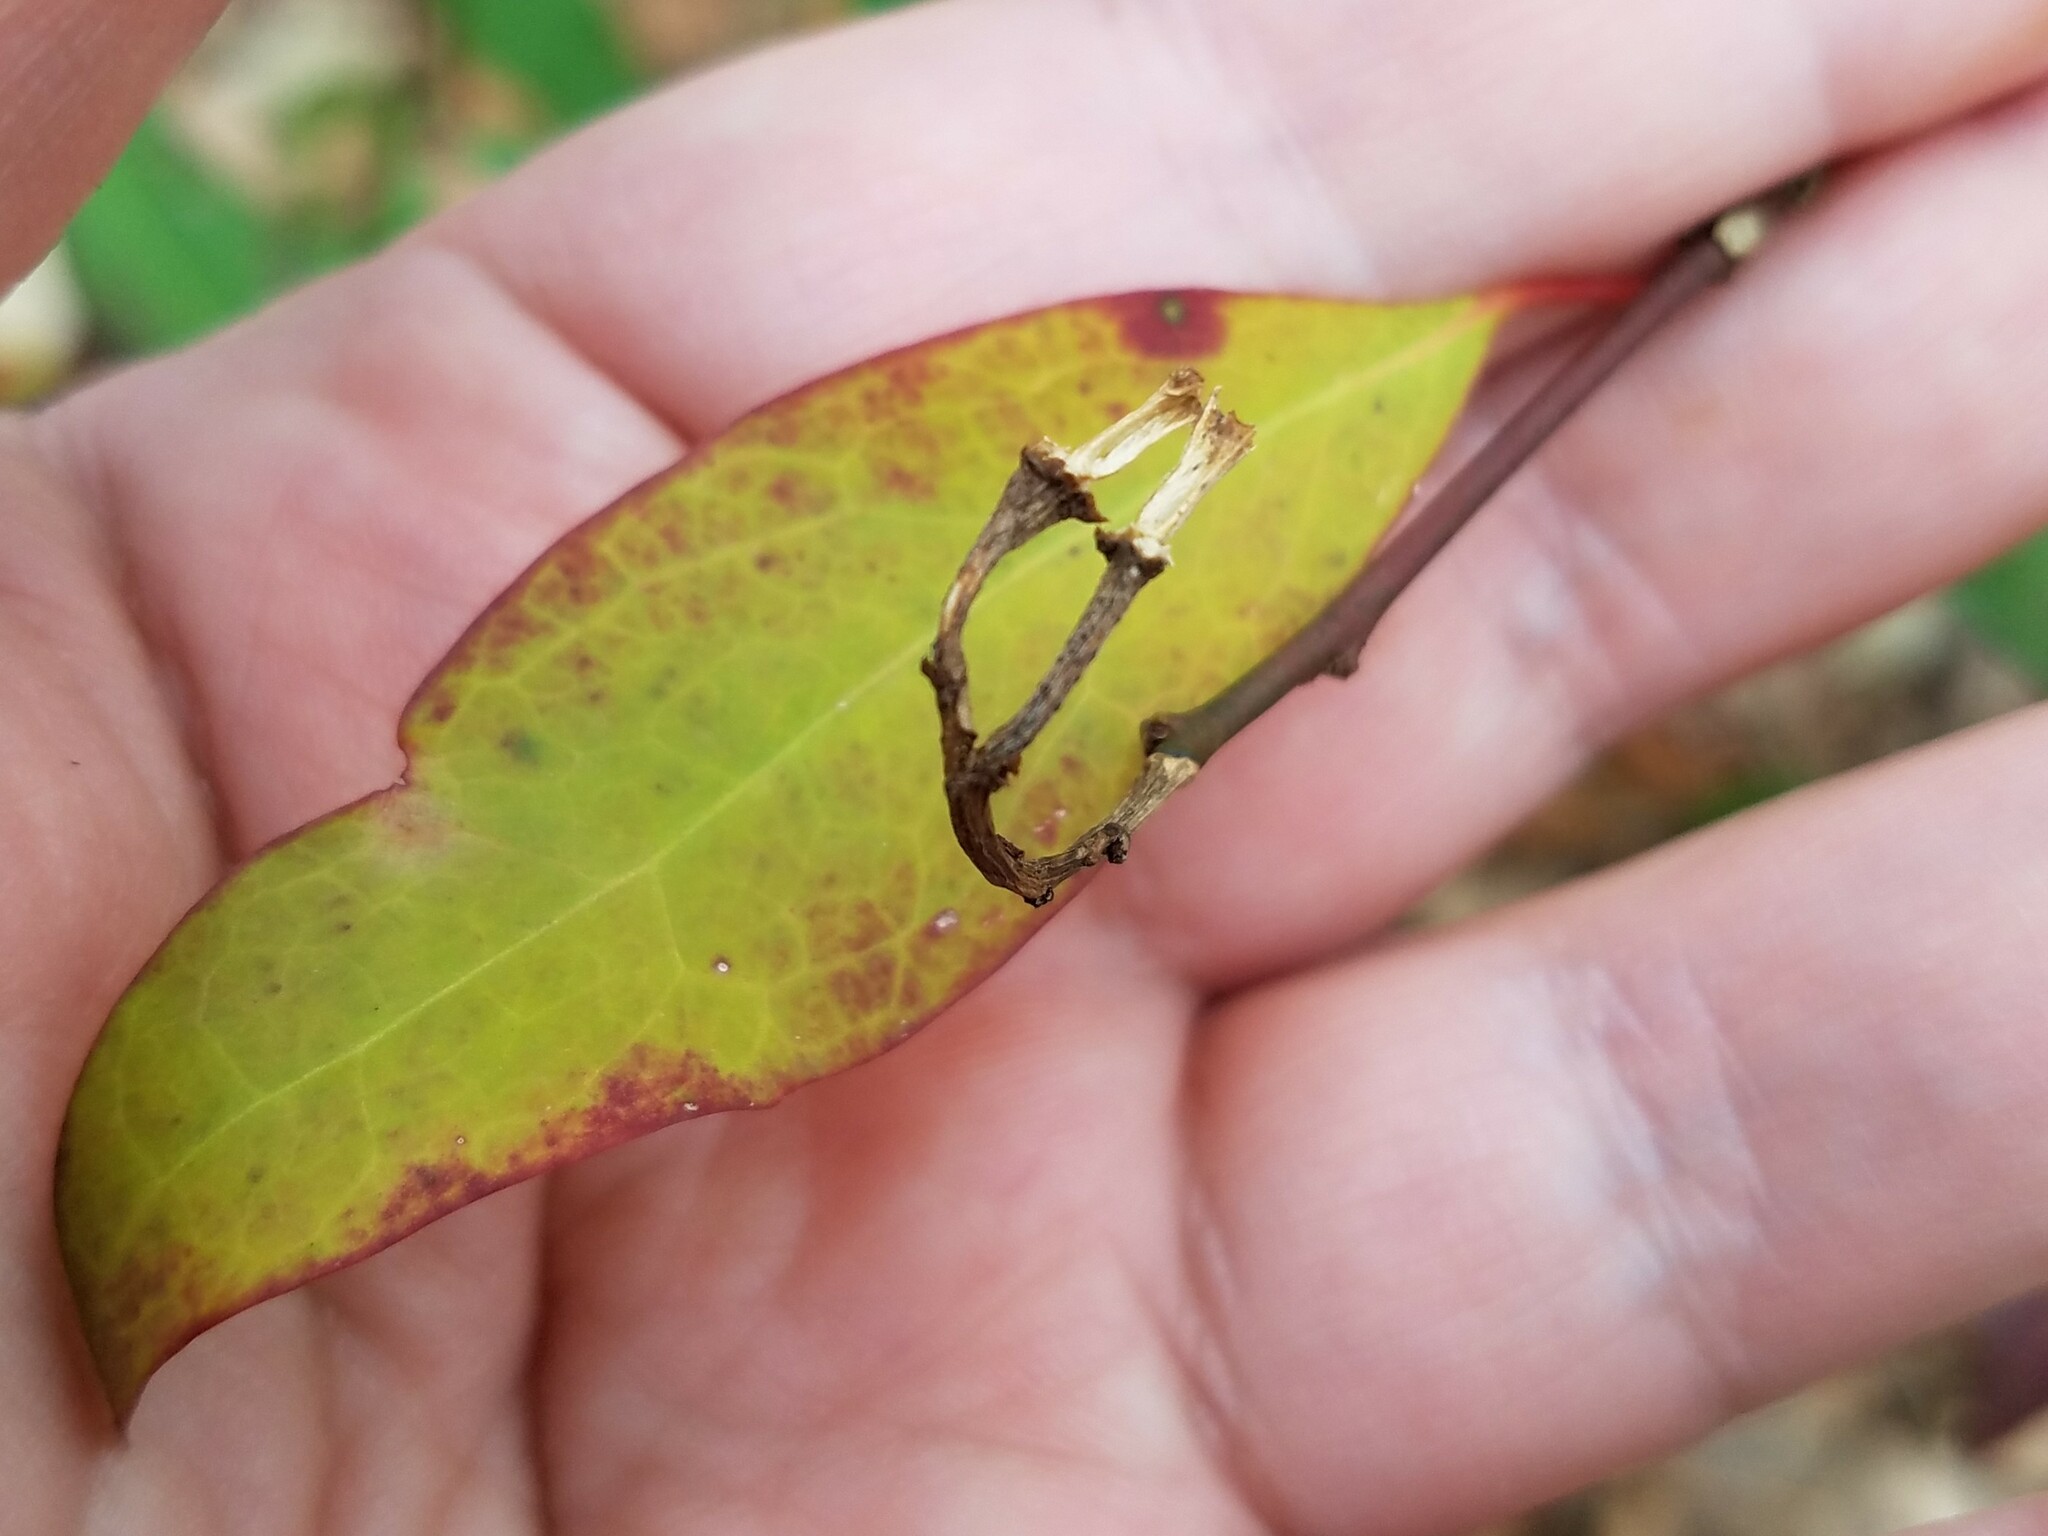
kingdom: Plantae
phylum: Tracheophyta
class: Magnoliopsida
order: Malpighiales
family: Euphorbiaceae
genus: Ditrysinia
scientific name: Ditrysinia fruticosa
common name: Gulf sebastian-bush
